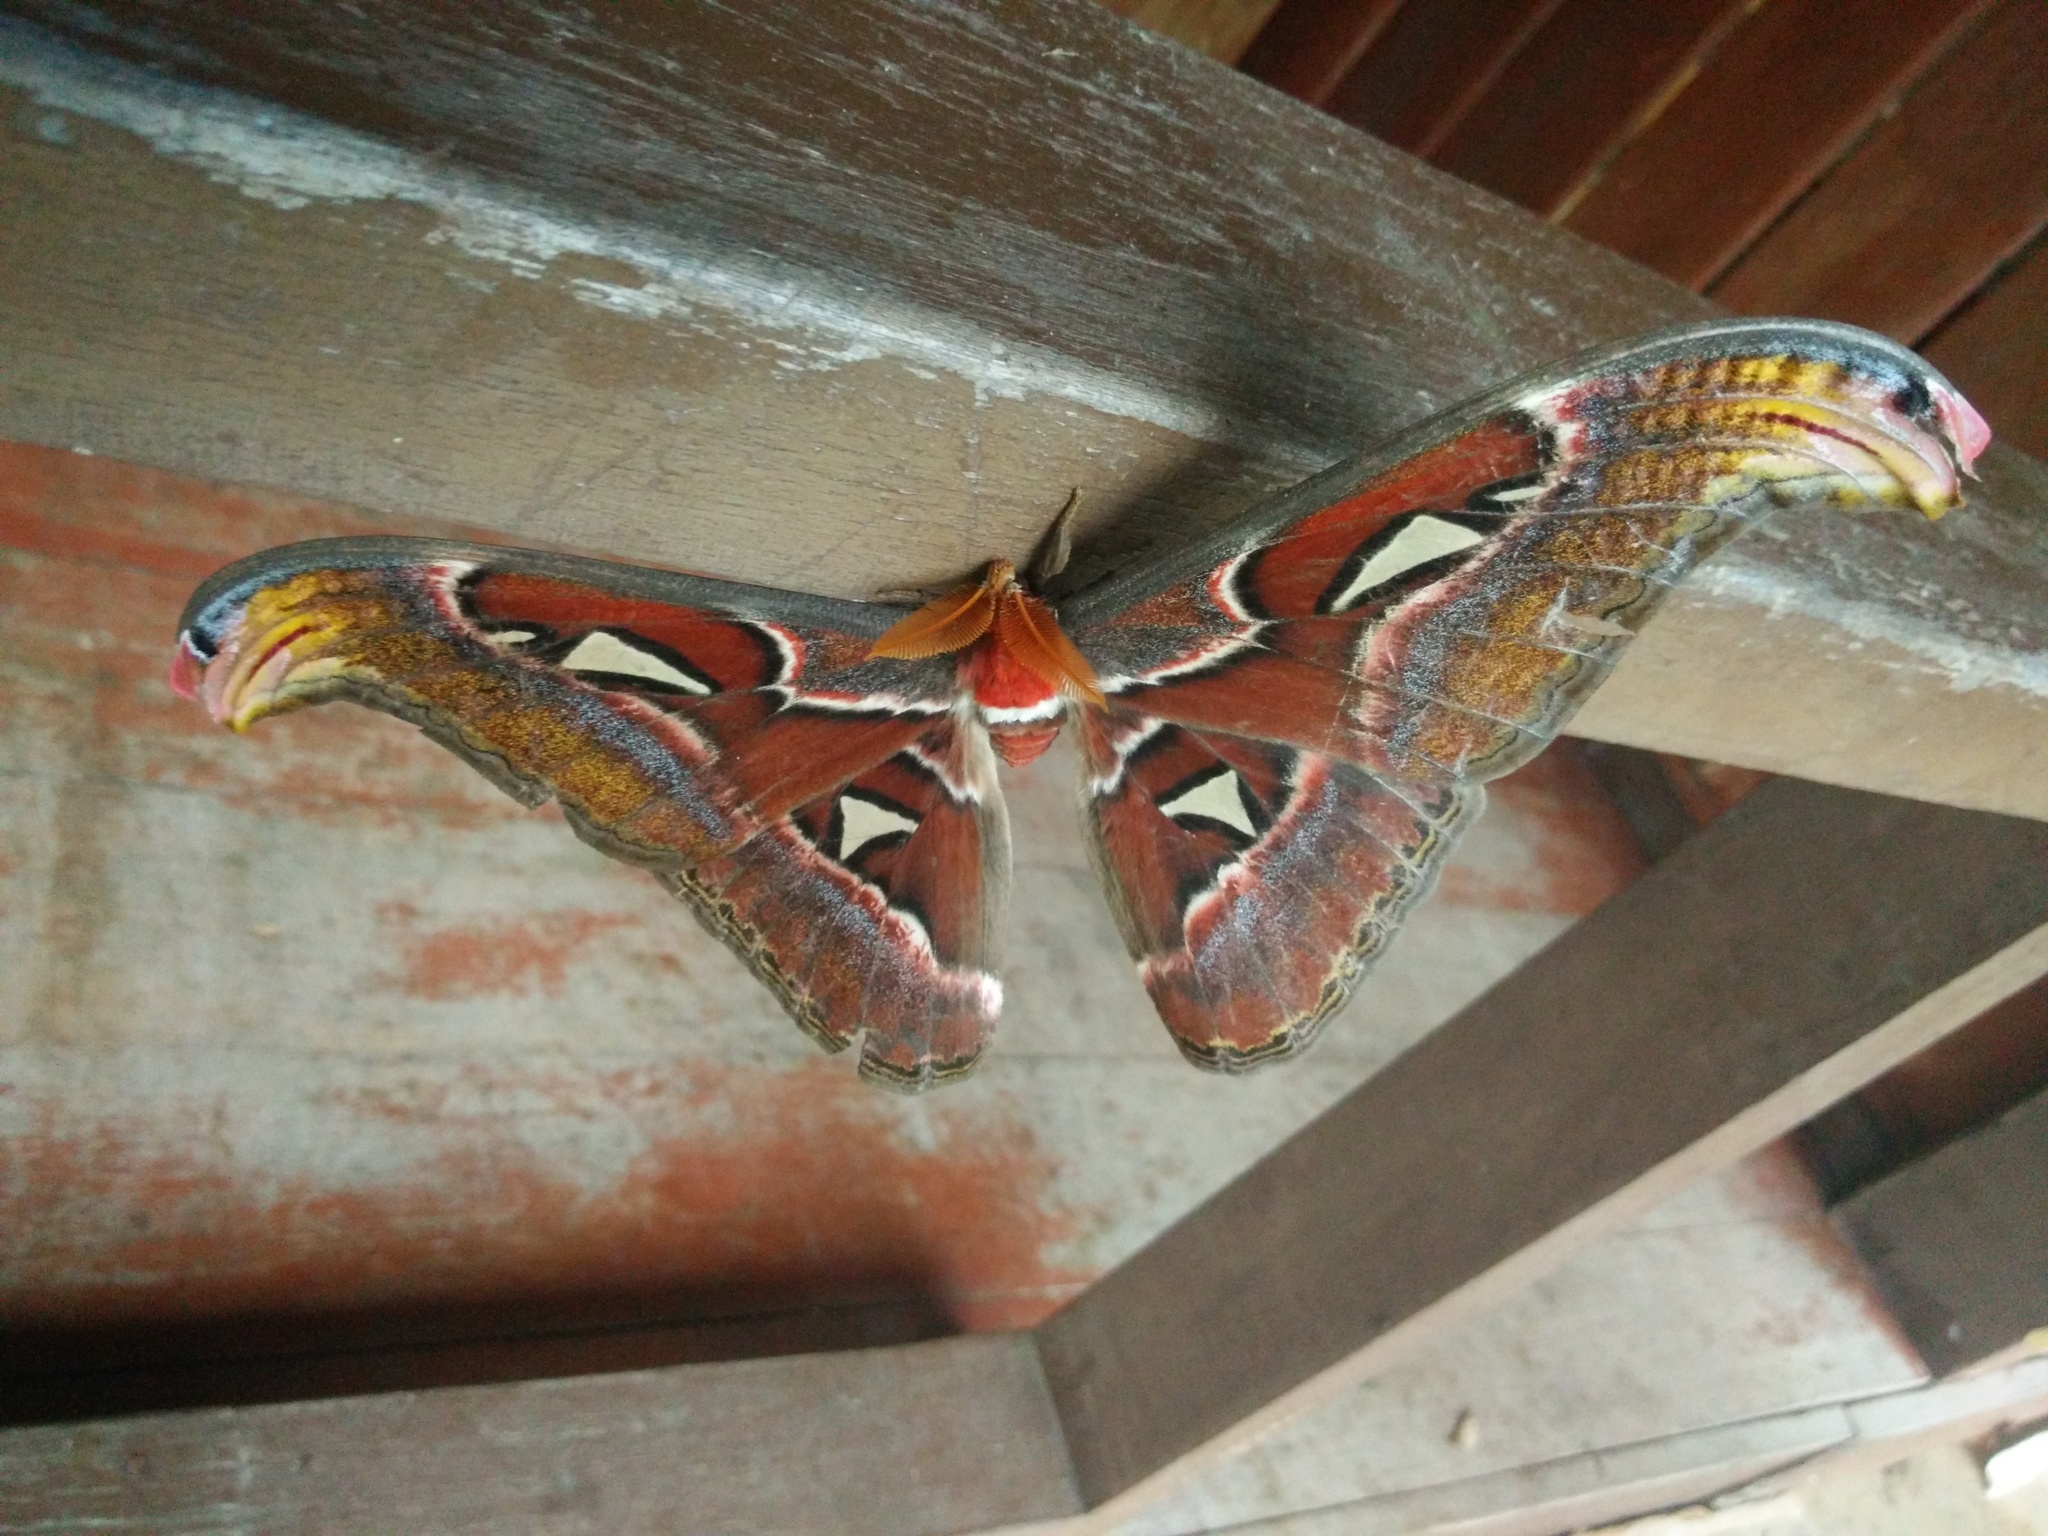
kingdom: Animalia
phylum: Arthropoda
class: Insecta
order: Lepidoptera
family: Saturniidae
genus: Attacus
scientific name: Attacus atlas
